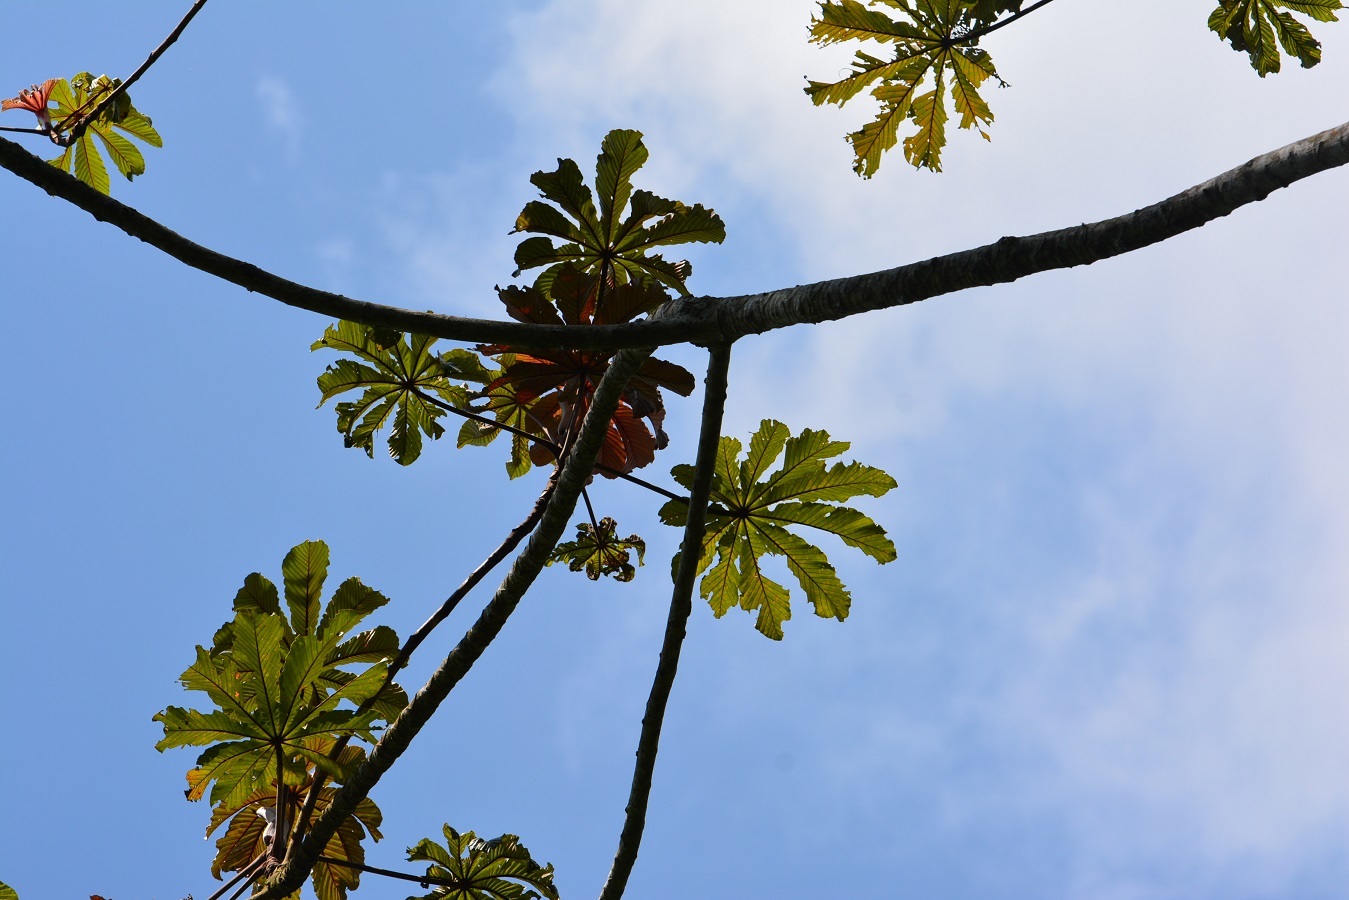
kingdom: Plantae
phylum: Tracheophyta
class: Magnoliopsida
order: Rosales
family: Urticaceae
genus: Cecropia
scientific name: Cecropia obtusifolia
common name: Trumpet tree
